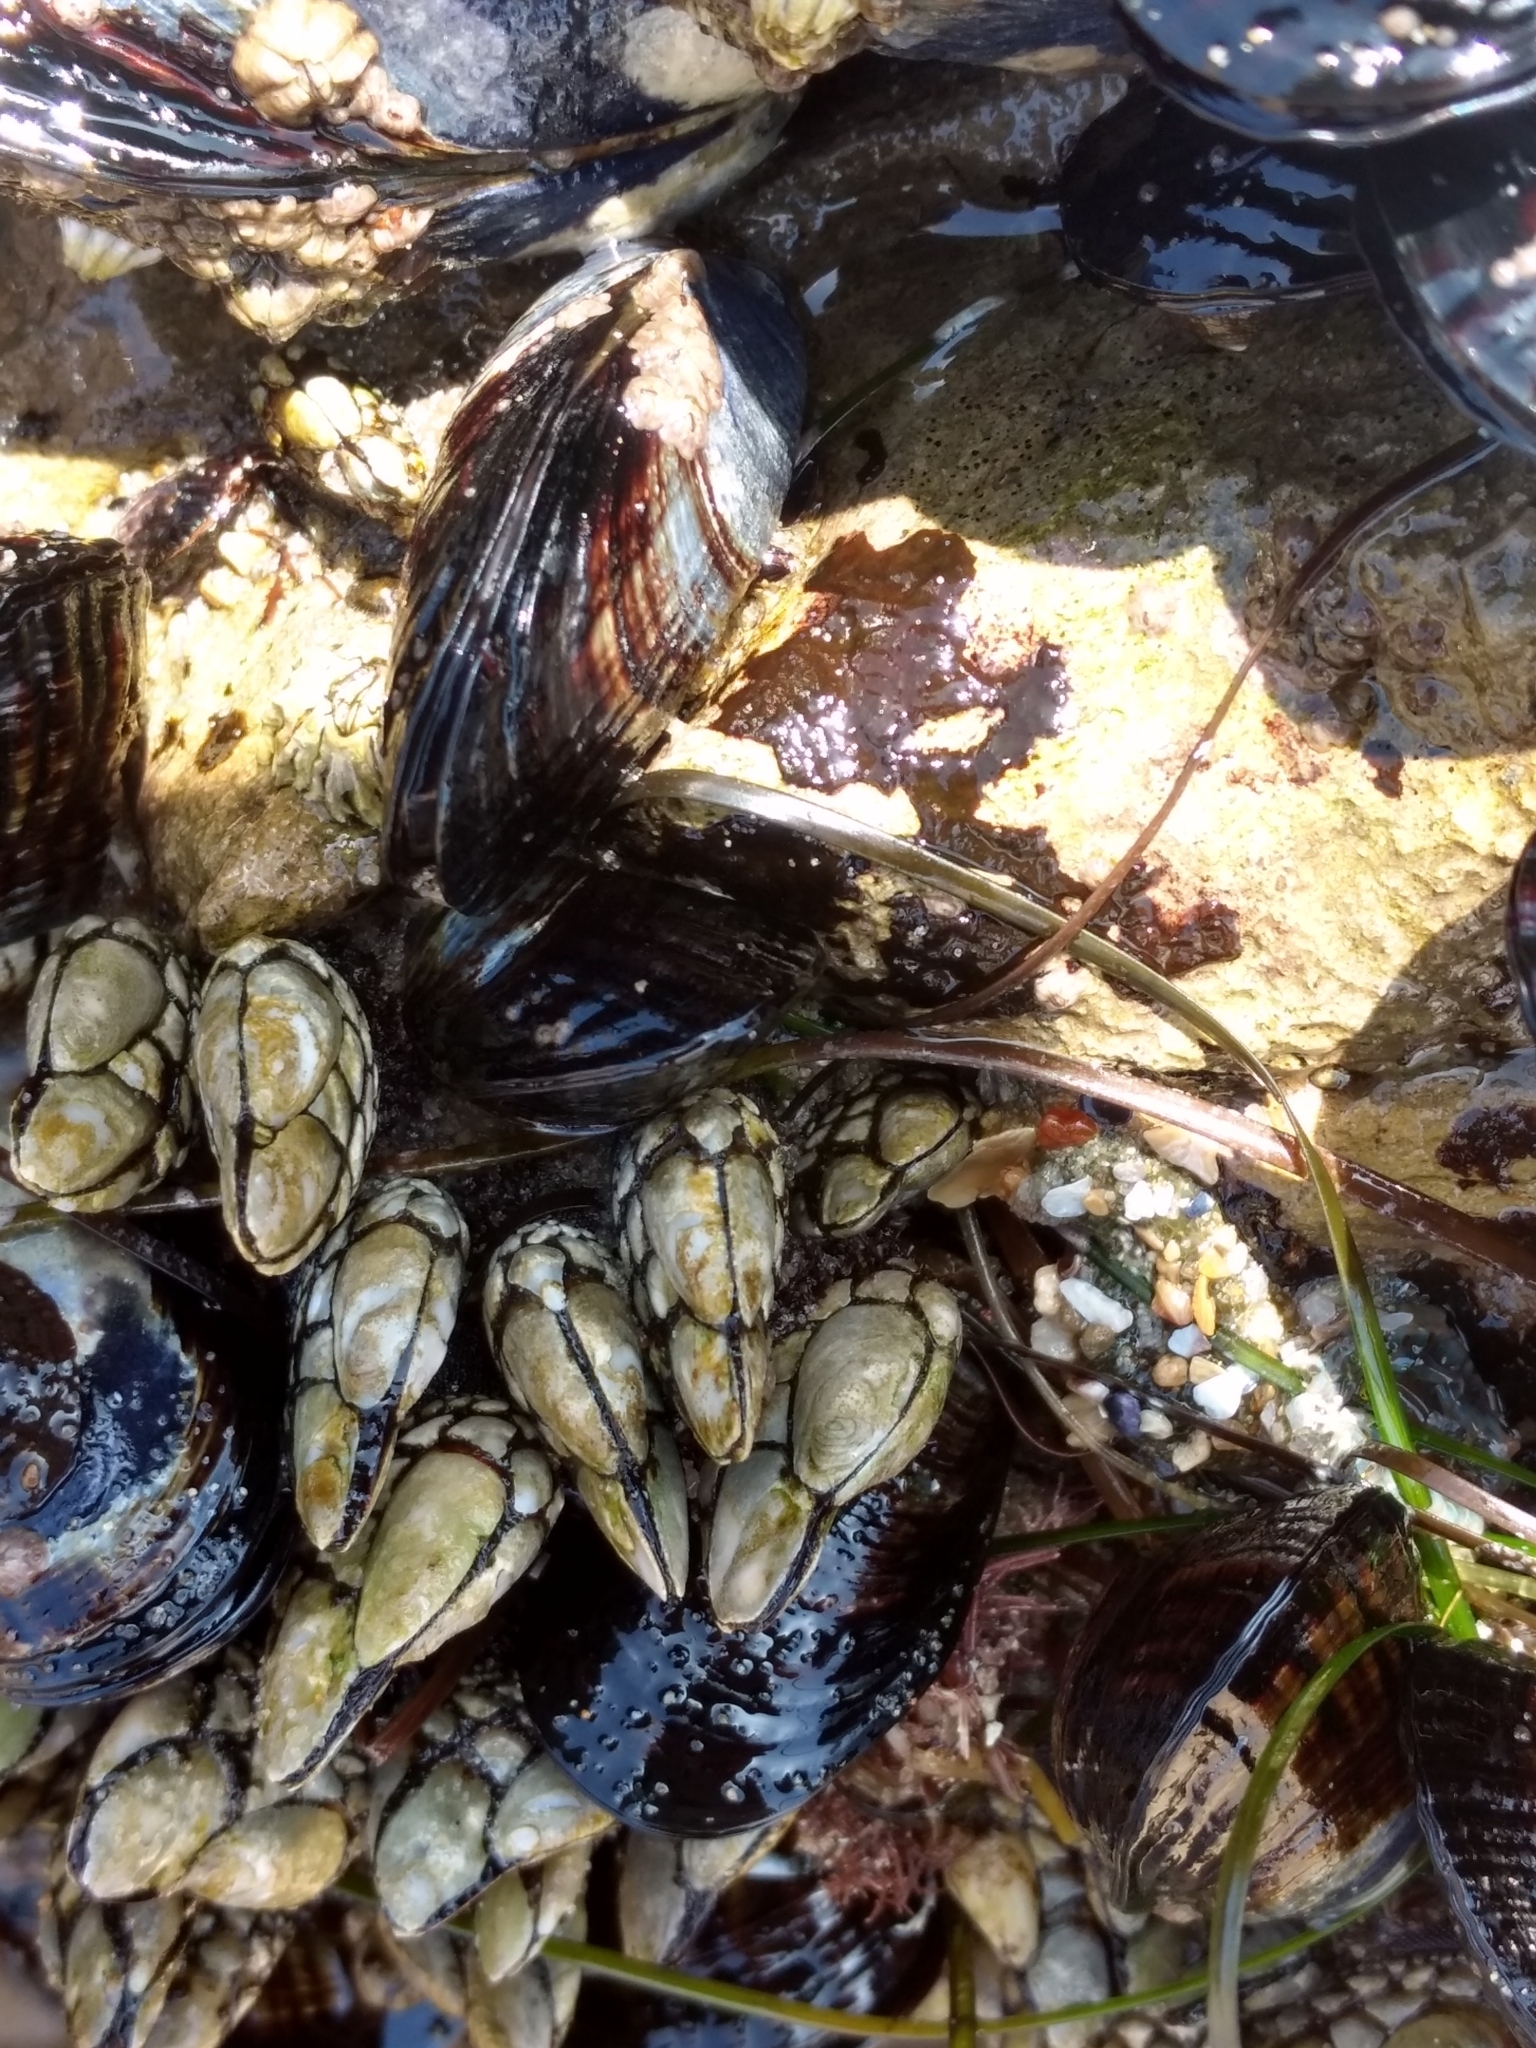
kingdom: Animalia
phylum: Arthropoda
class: Maxillopoda
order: Pedunculata
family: Pollicipedidae
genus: Pollicipes
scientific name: Pollicipes polymerus
